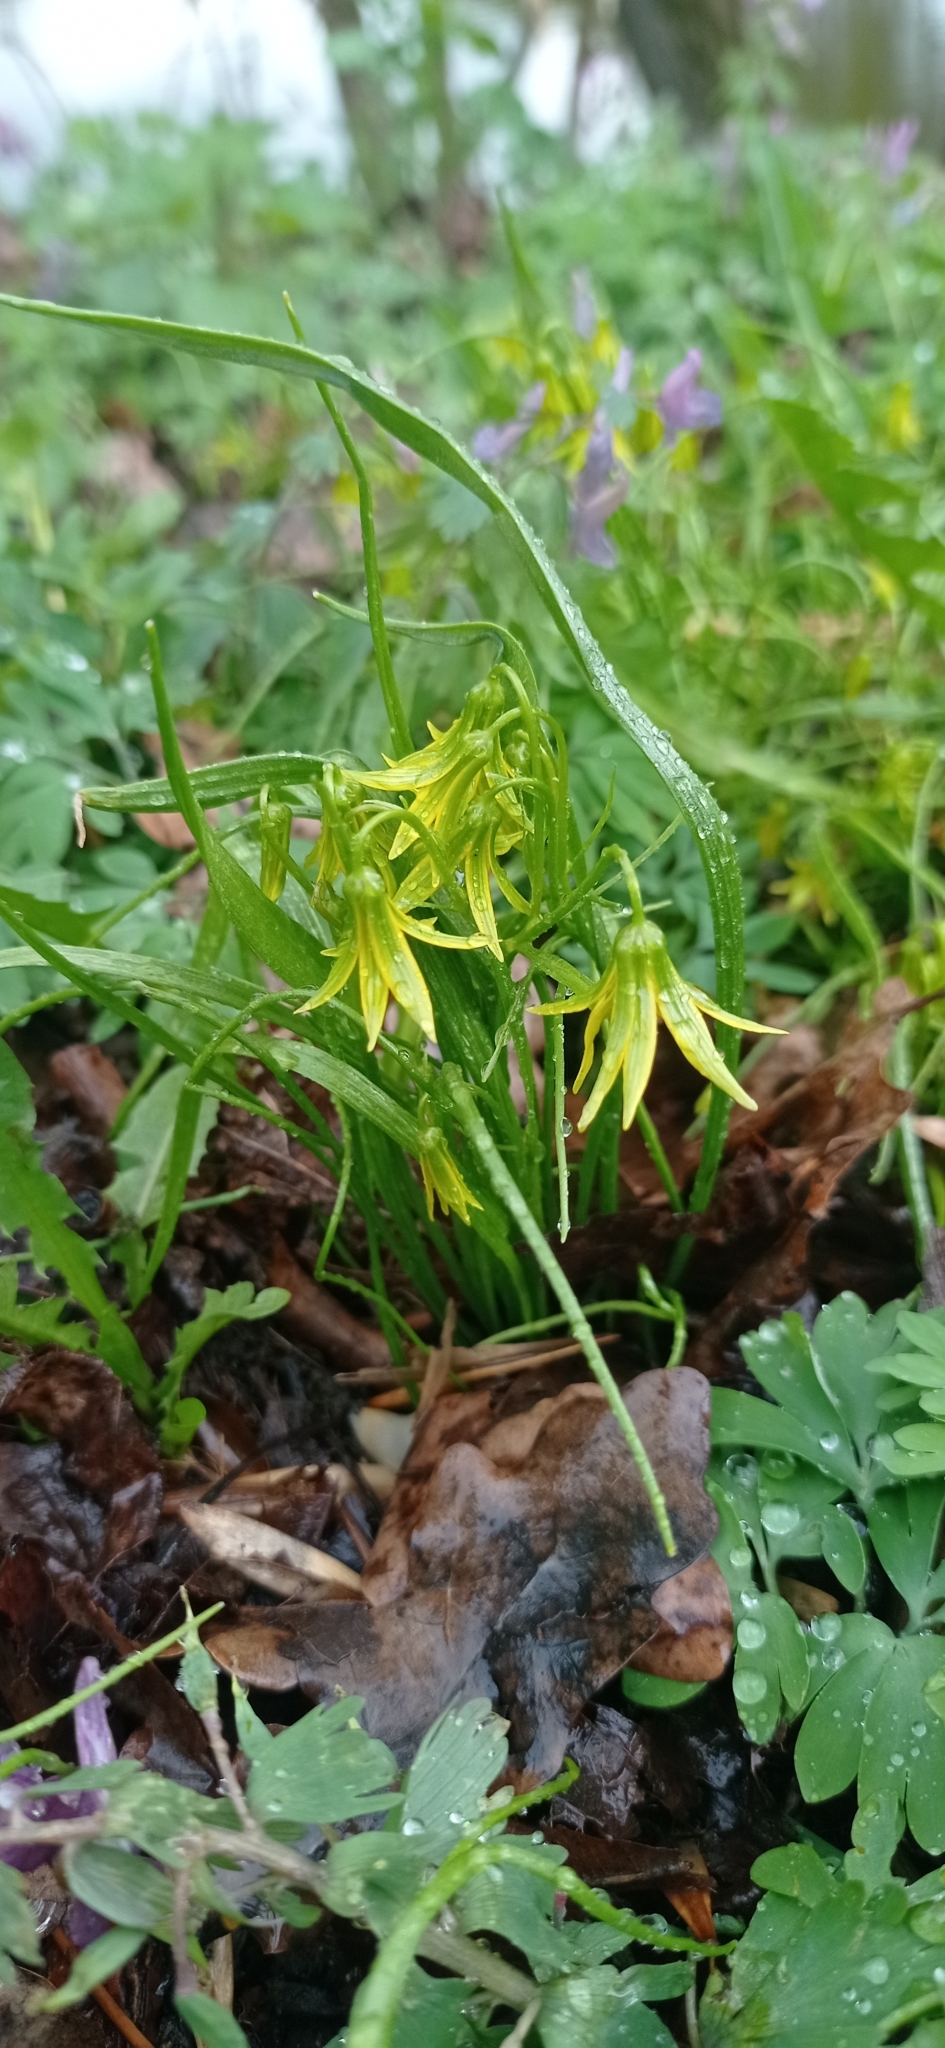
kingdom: Plantae
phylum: Tracheophyta
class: Liliopsida
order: Liliales
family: Liliaceae
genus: Gagea
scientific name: Gagea minima
